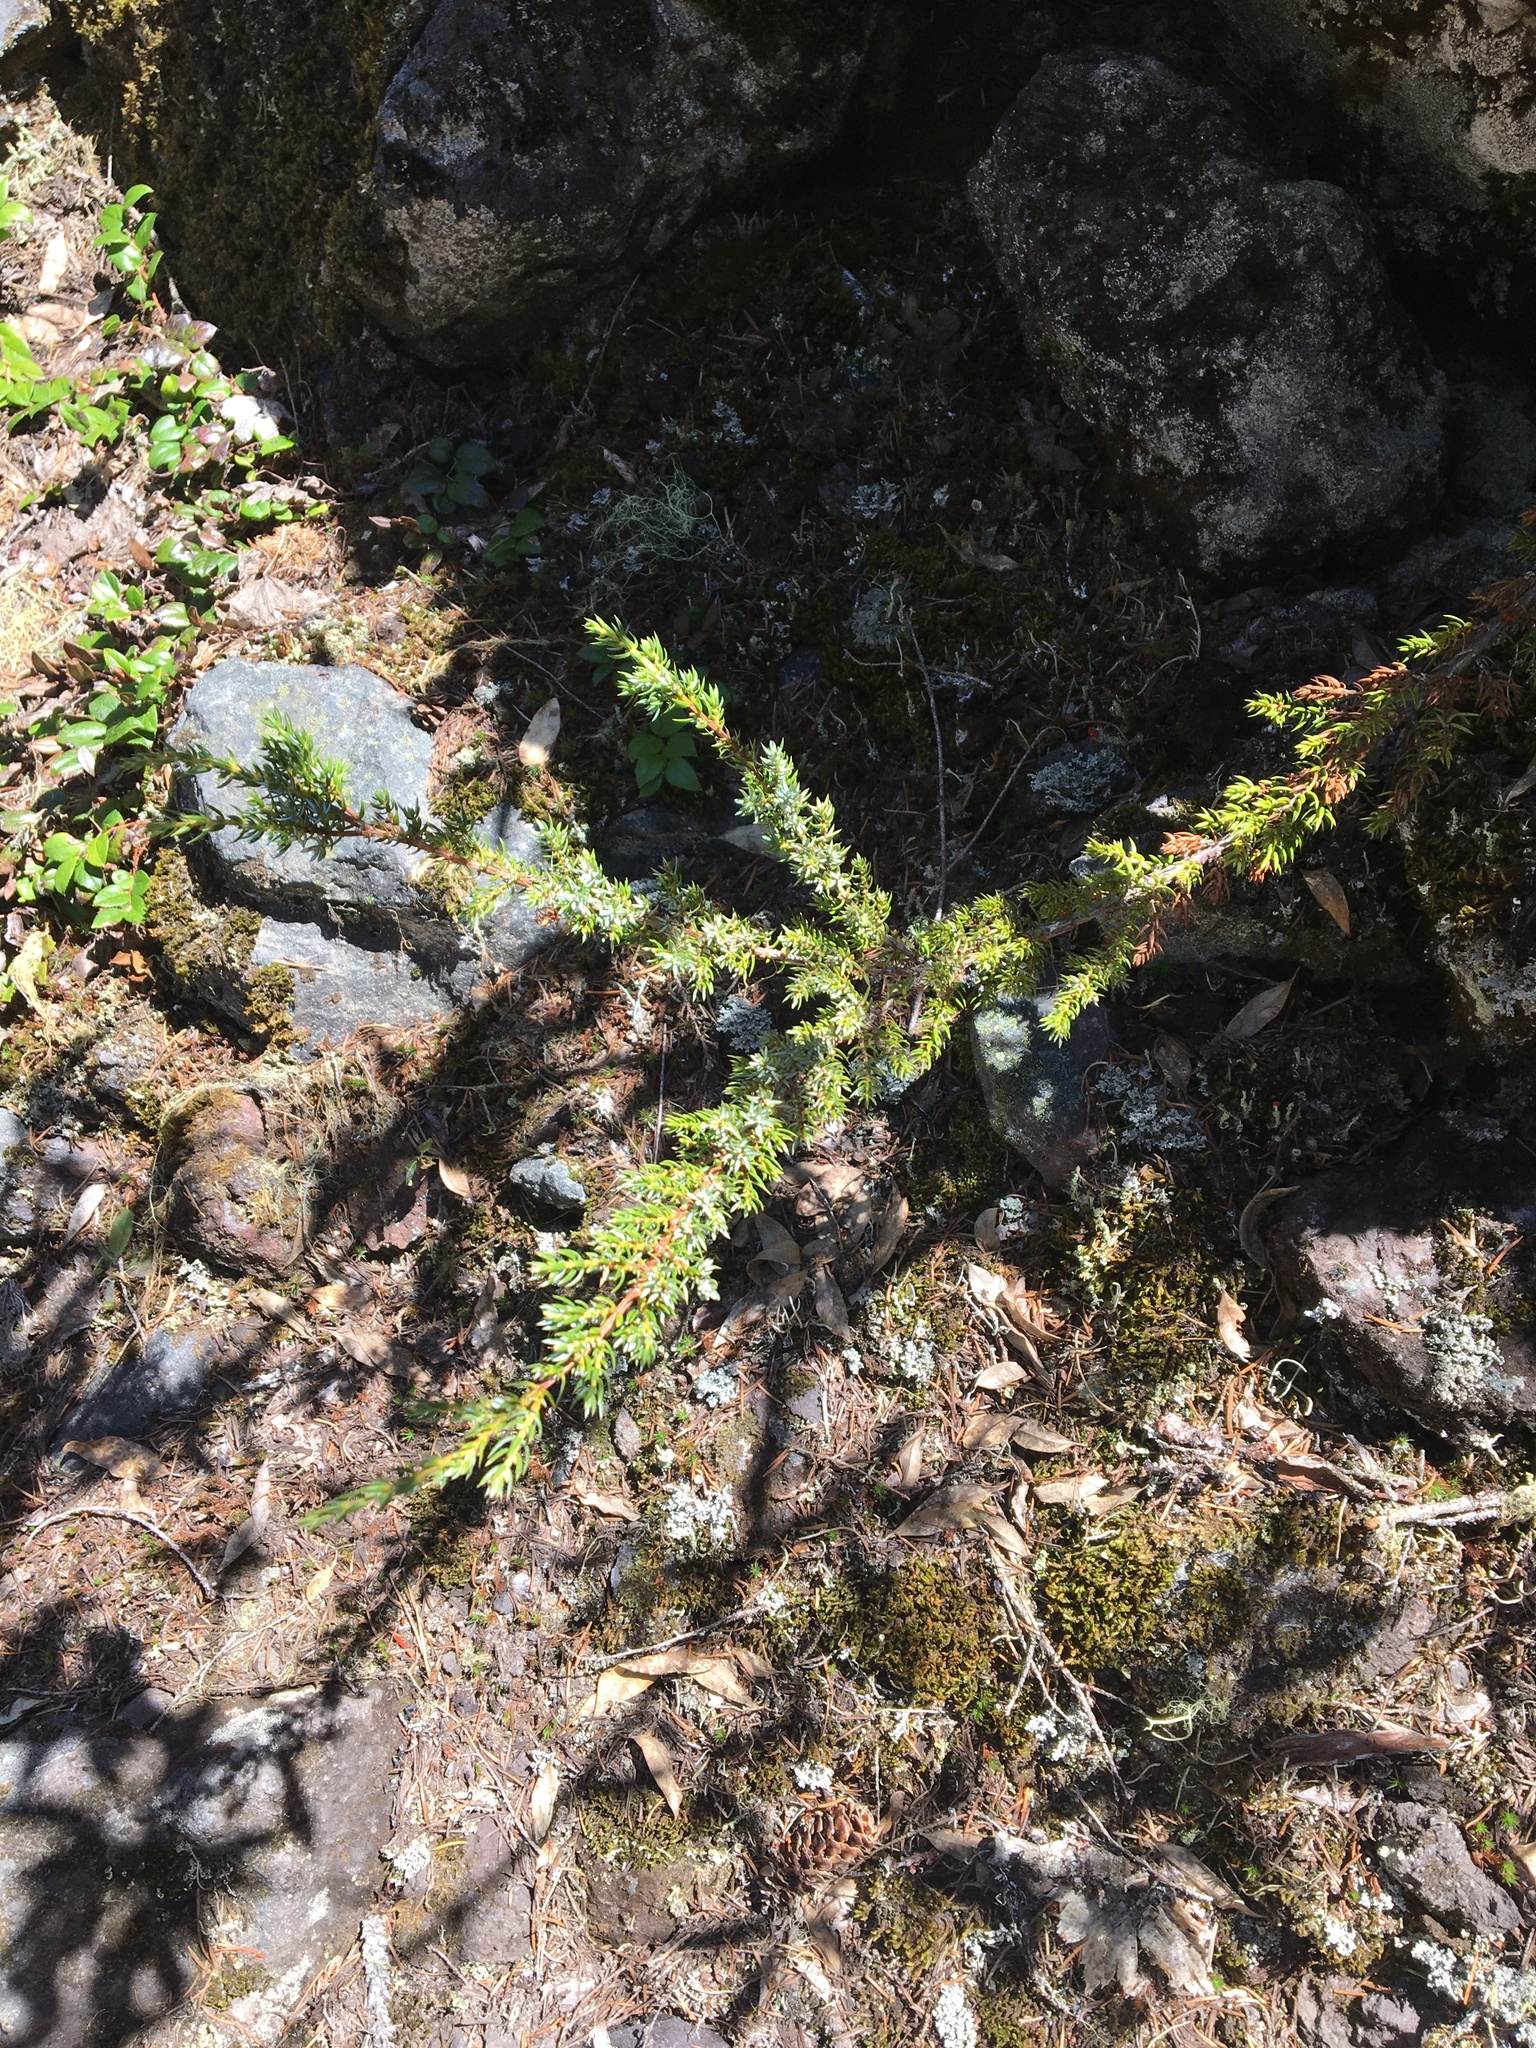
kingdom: Plantae
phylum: Tracheophyta
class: Pinopsida
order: Pinales
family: Cupressaceae
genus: Juniperus
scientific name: Juniperus communis
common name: Common juniper
